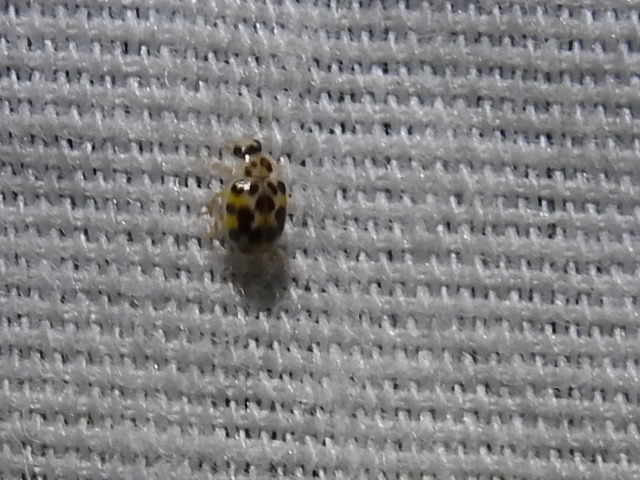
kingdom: Animalia
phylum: Arthropoda
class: Insecta
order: Coleoptera
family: Coccinellidae
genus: Psyllobora
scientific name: Psyllobora vigintimaculata
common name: Ladybird beetle
